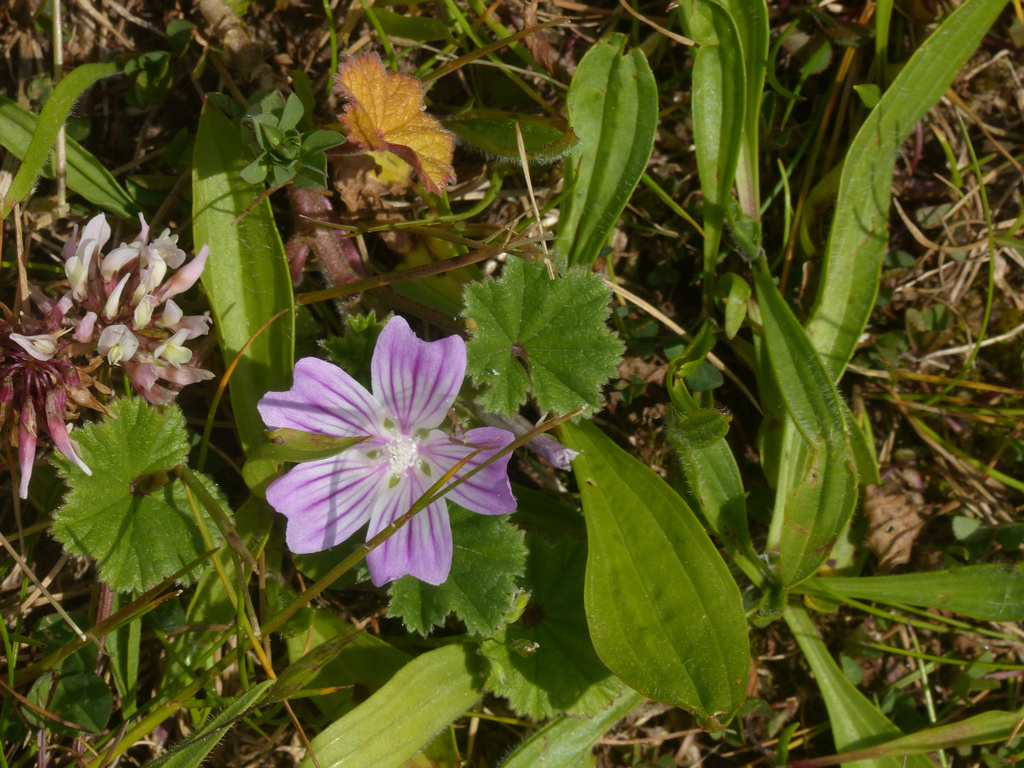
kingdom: Plantae
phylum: Tracheophyta
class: Magnoliopsida
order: Malvales
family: Malvaceae
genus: Malva
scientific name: Malva neglecta
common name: Common mallow
